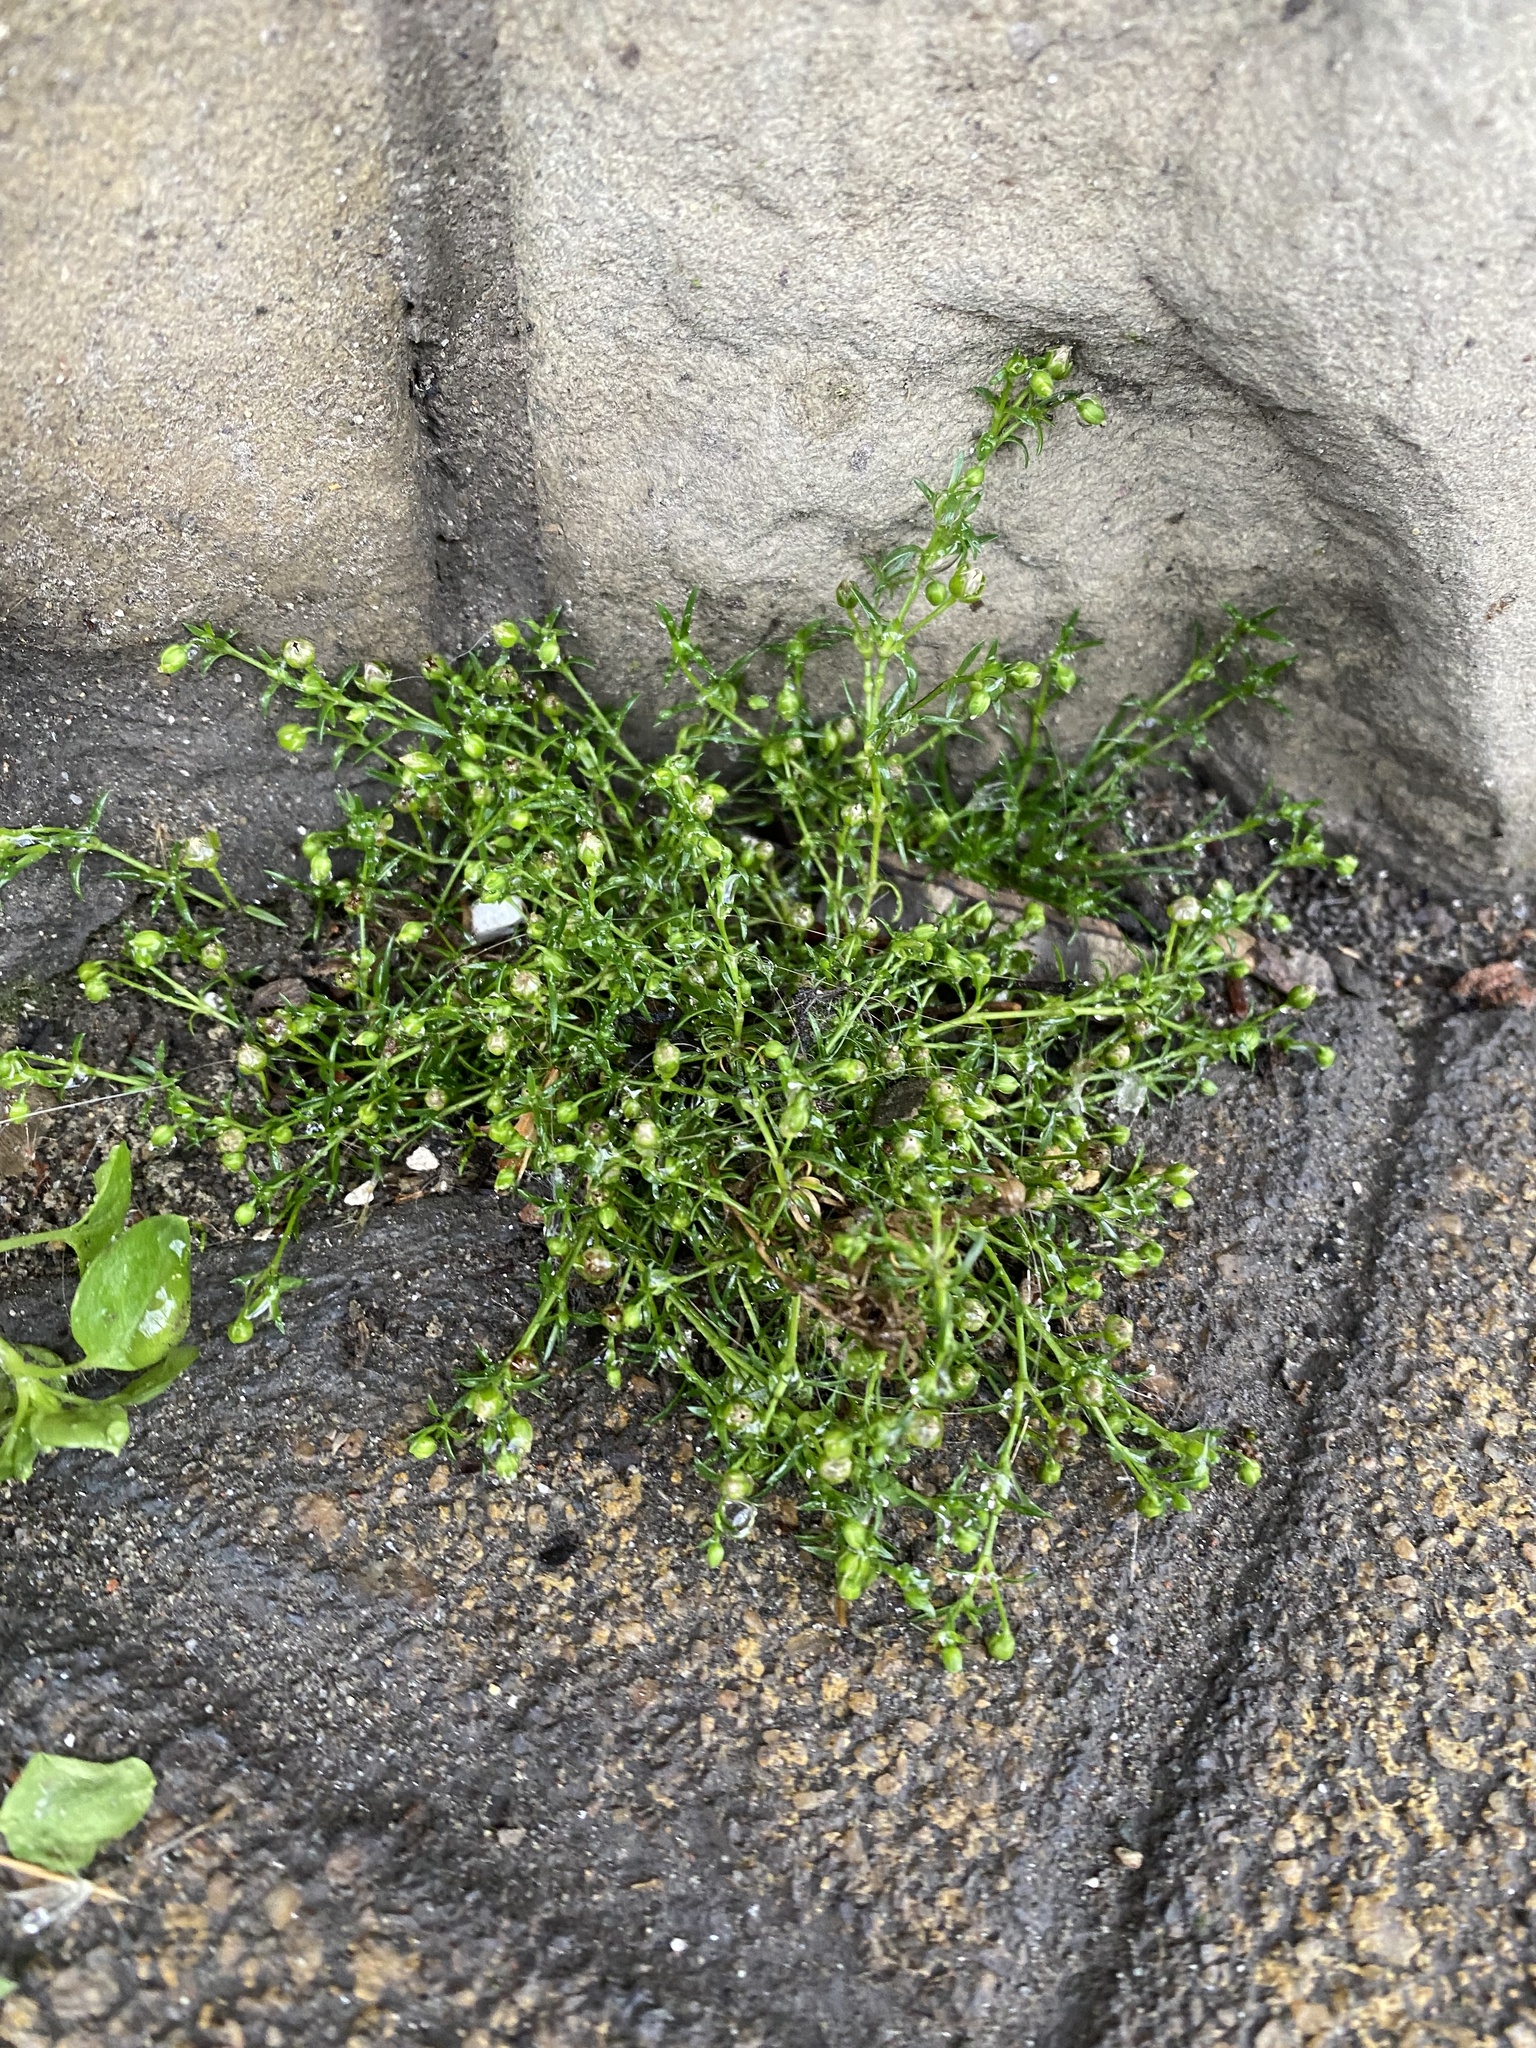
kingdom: Plantae
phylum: Tracheophyta
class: Magnoliopsida
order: Caryophyllales
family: Caryophyllaceae
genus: Sagina
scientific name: Sagina procumbens
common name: Procumbent pearlwort
